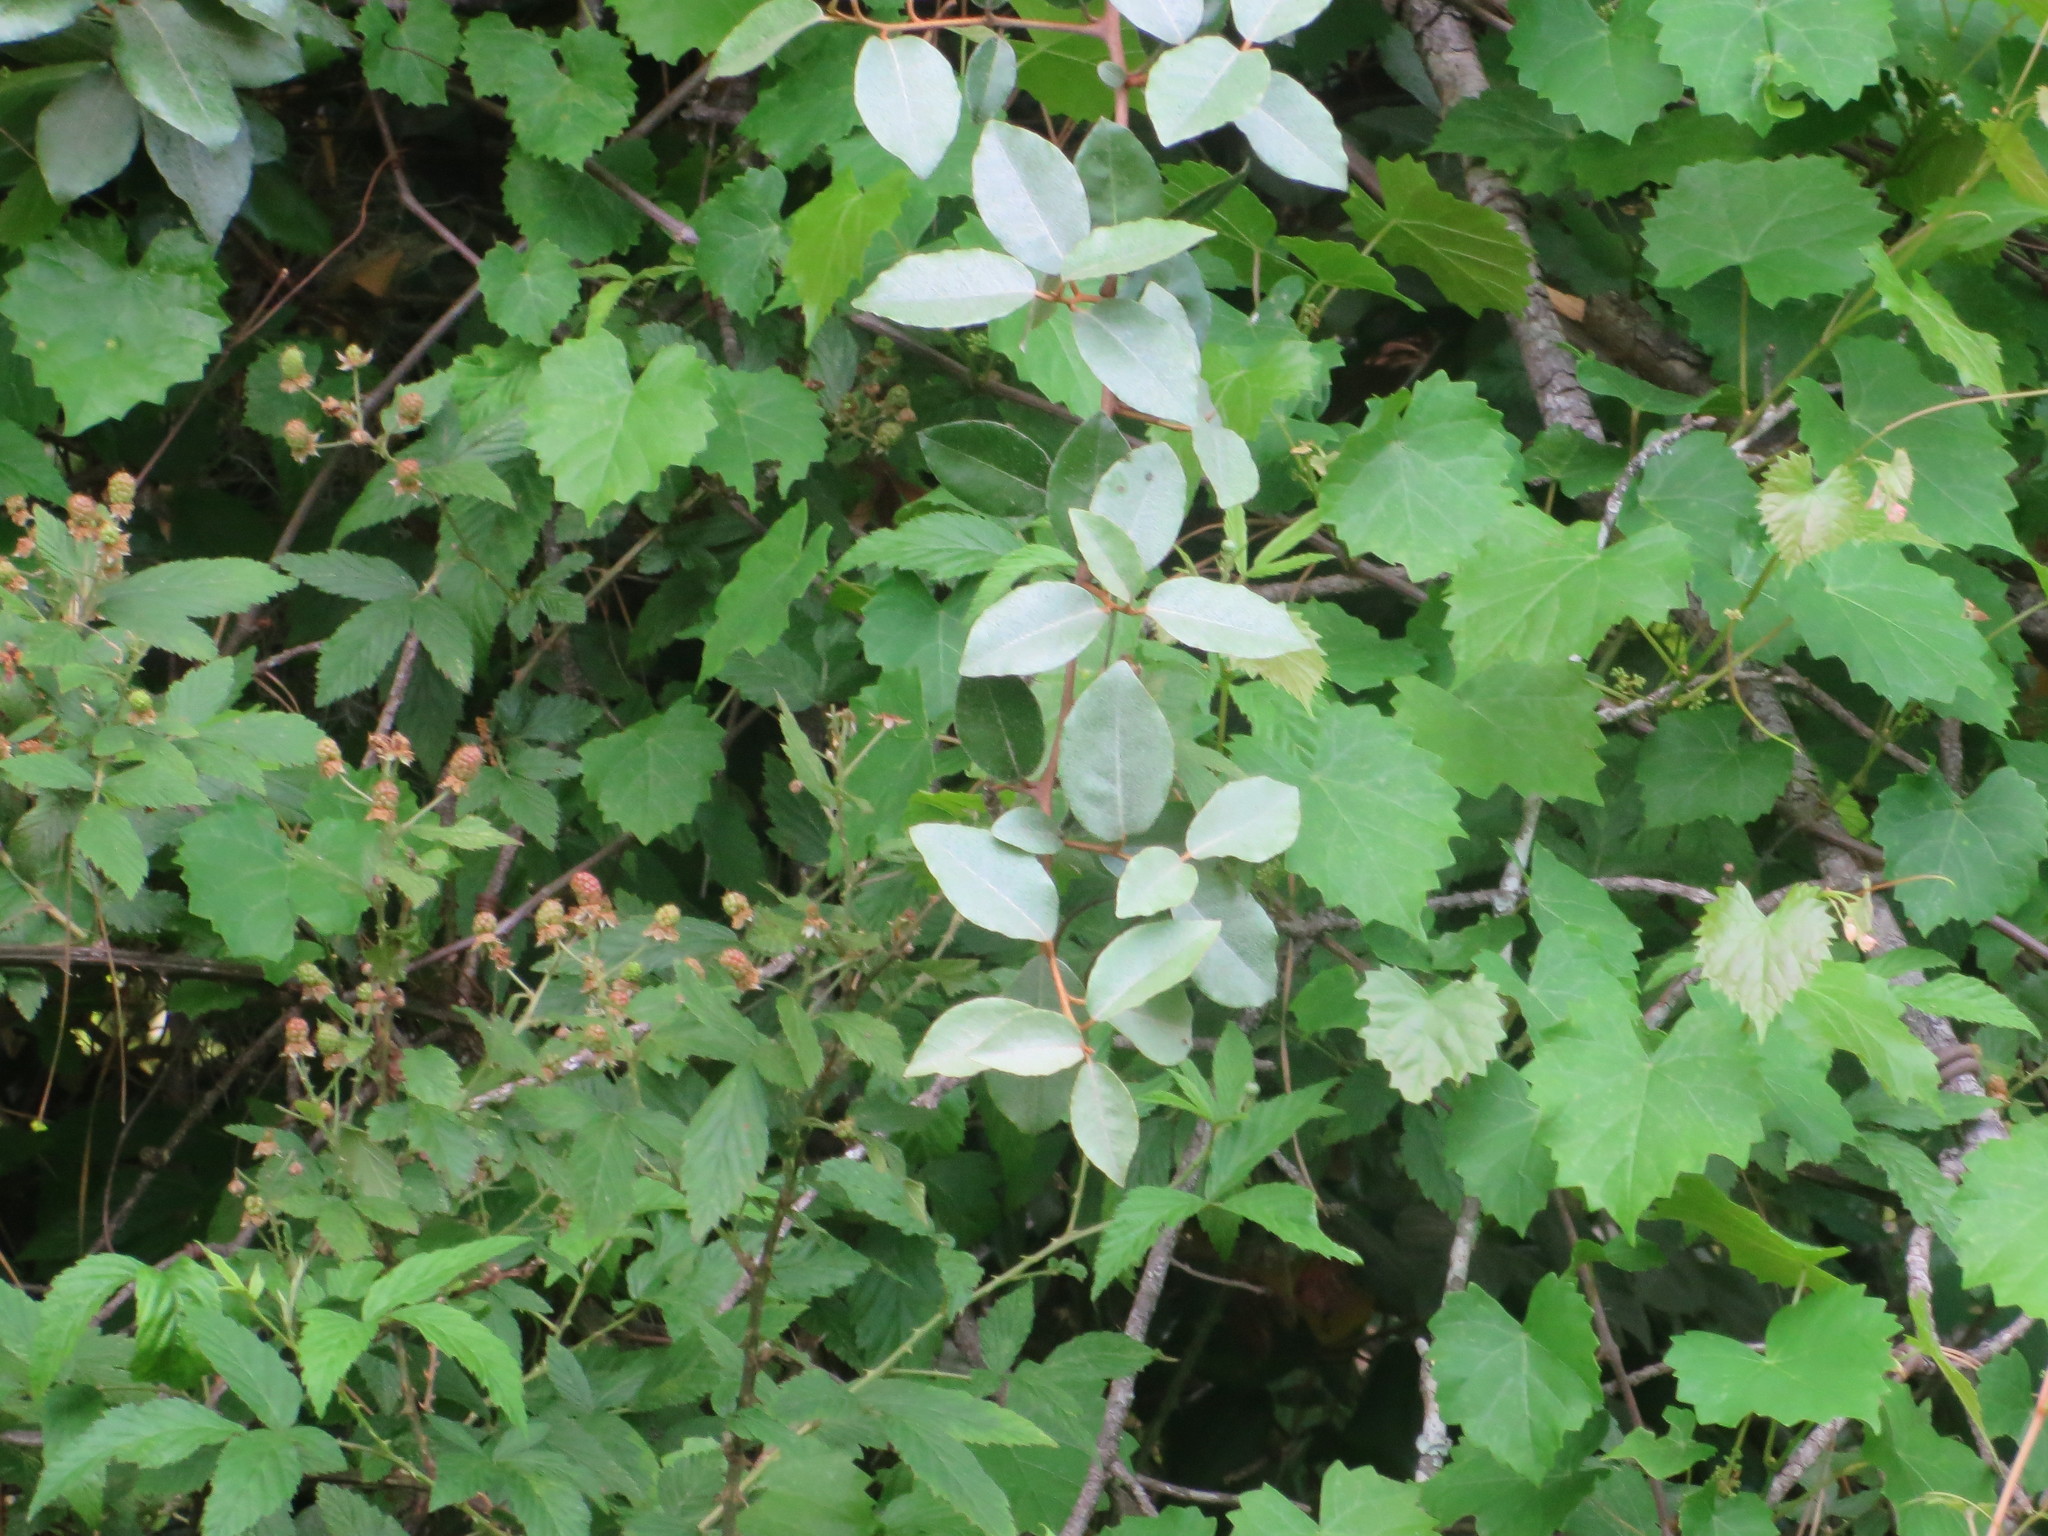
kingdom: Plantae
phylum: Tracheophyta
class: Magnoliopsida
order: Rosales
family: Elaeagnaceae
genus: Elaeagnus
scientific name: Elaeagnus pungens
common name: Spiny oleaster
